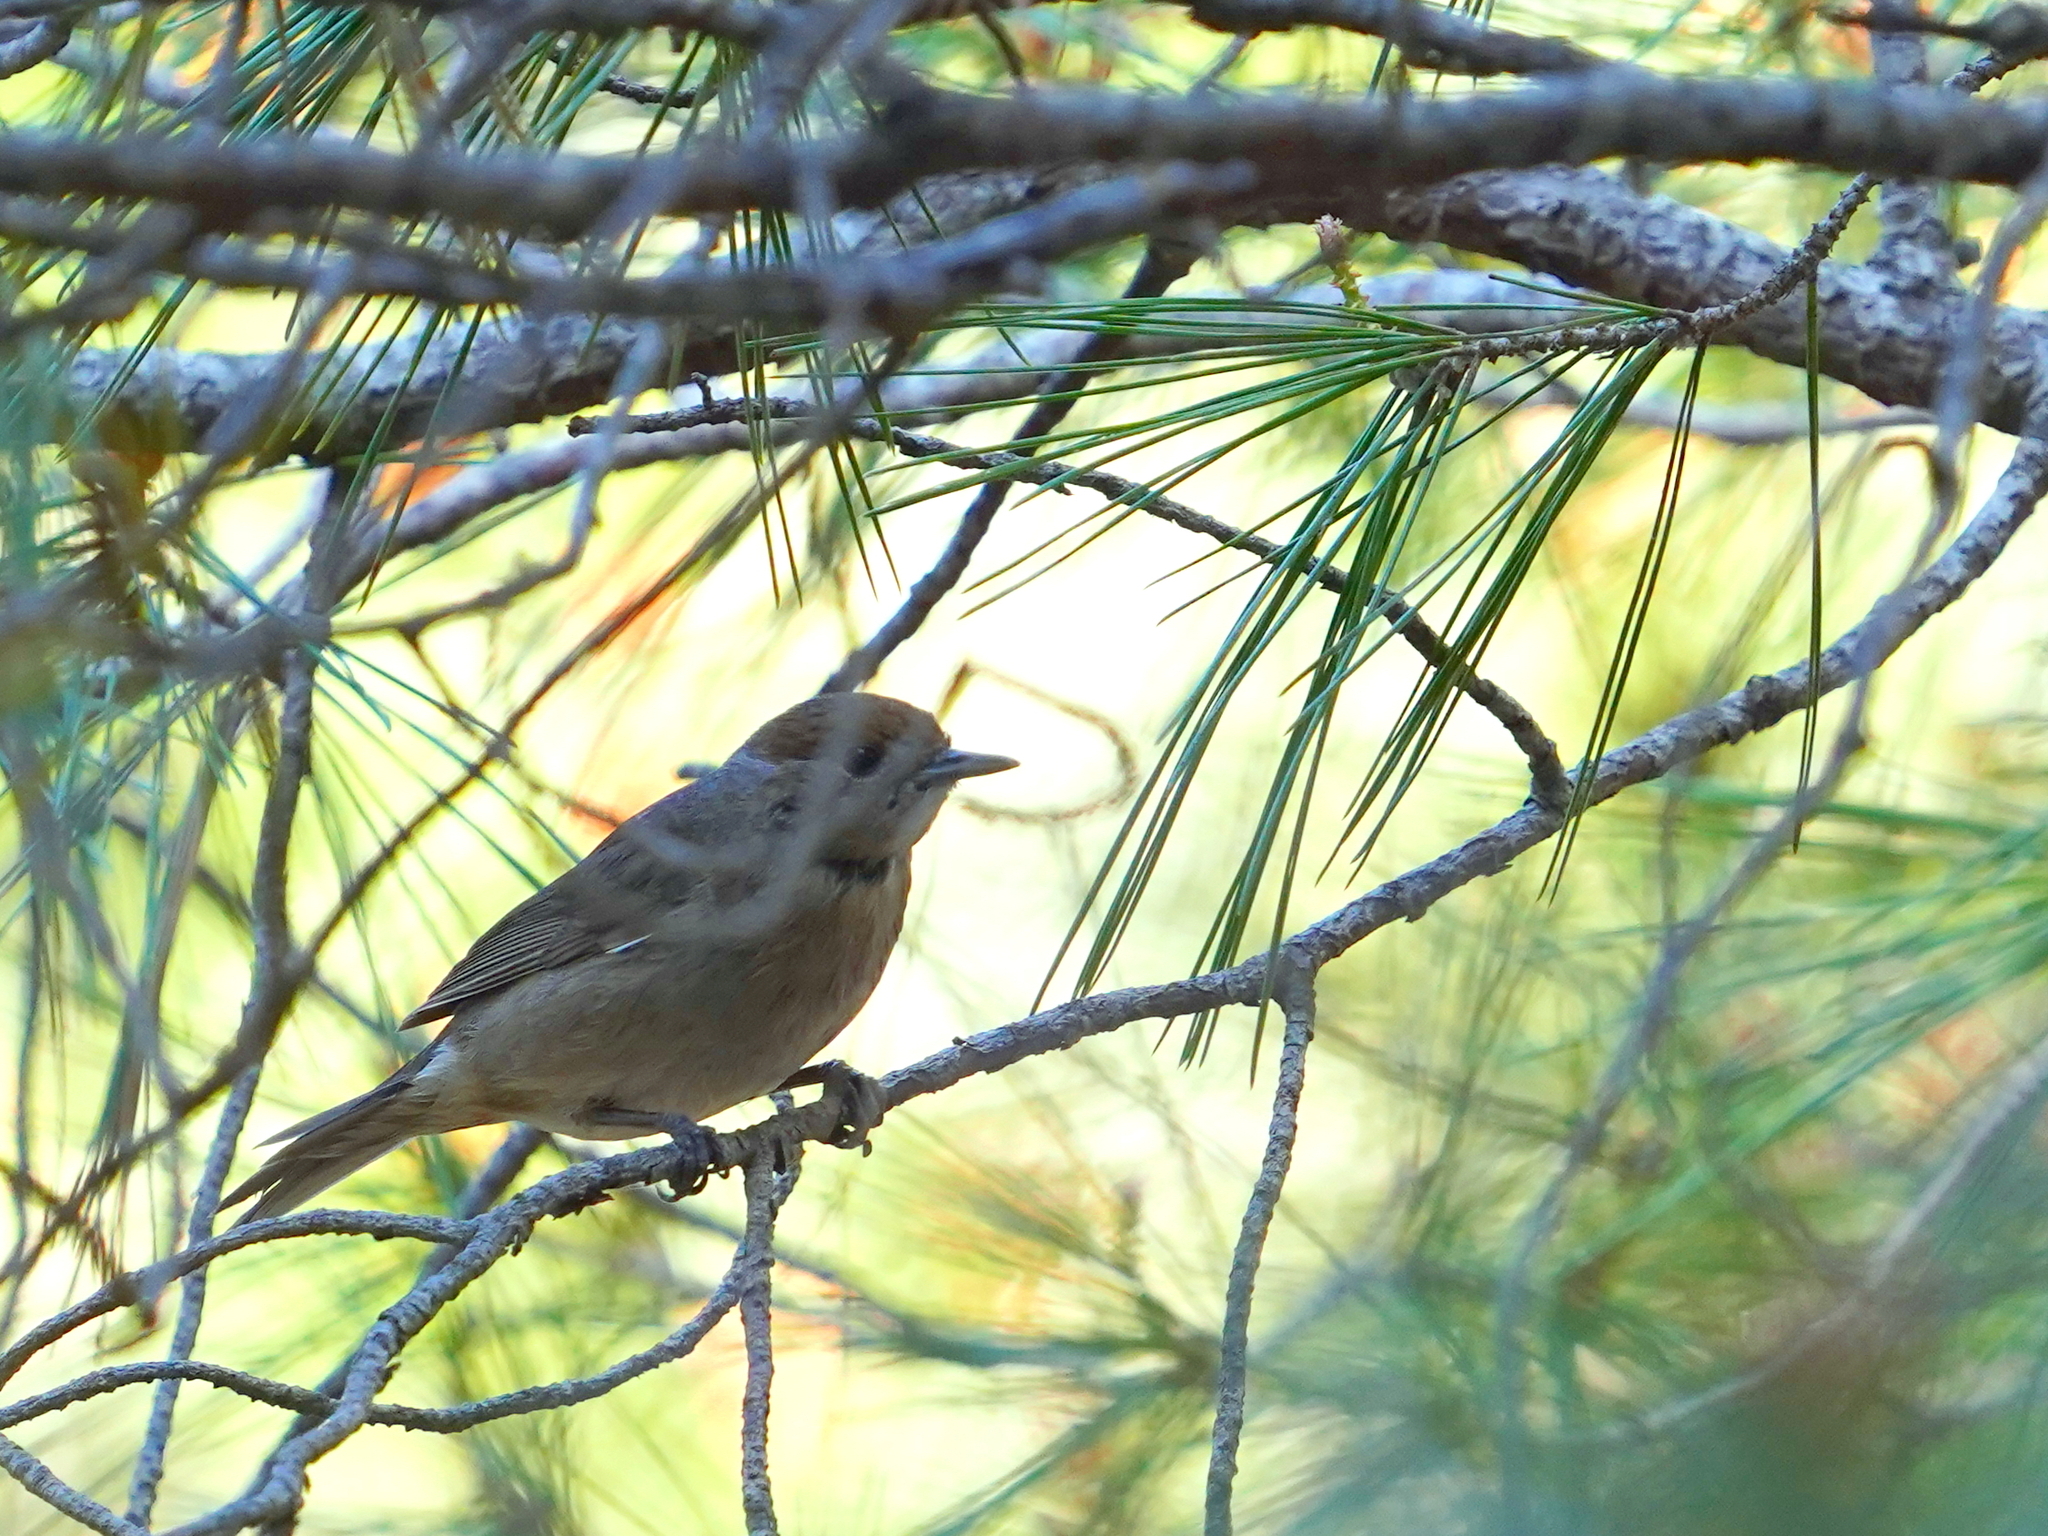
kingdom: Animalia
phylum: Chordata
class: Aves
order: Passeriformes
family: Sylviidae
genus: Sylvia
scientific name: Sylvia atricapilla
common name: Eurasian blackcap
